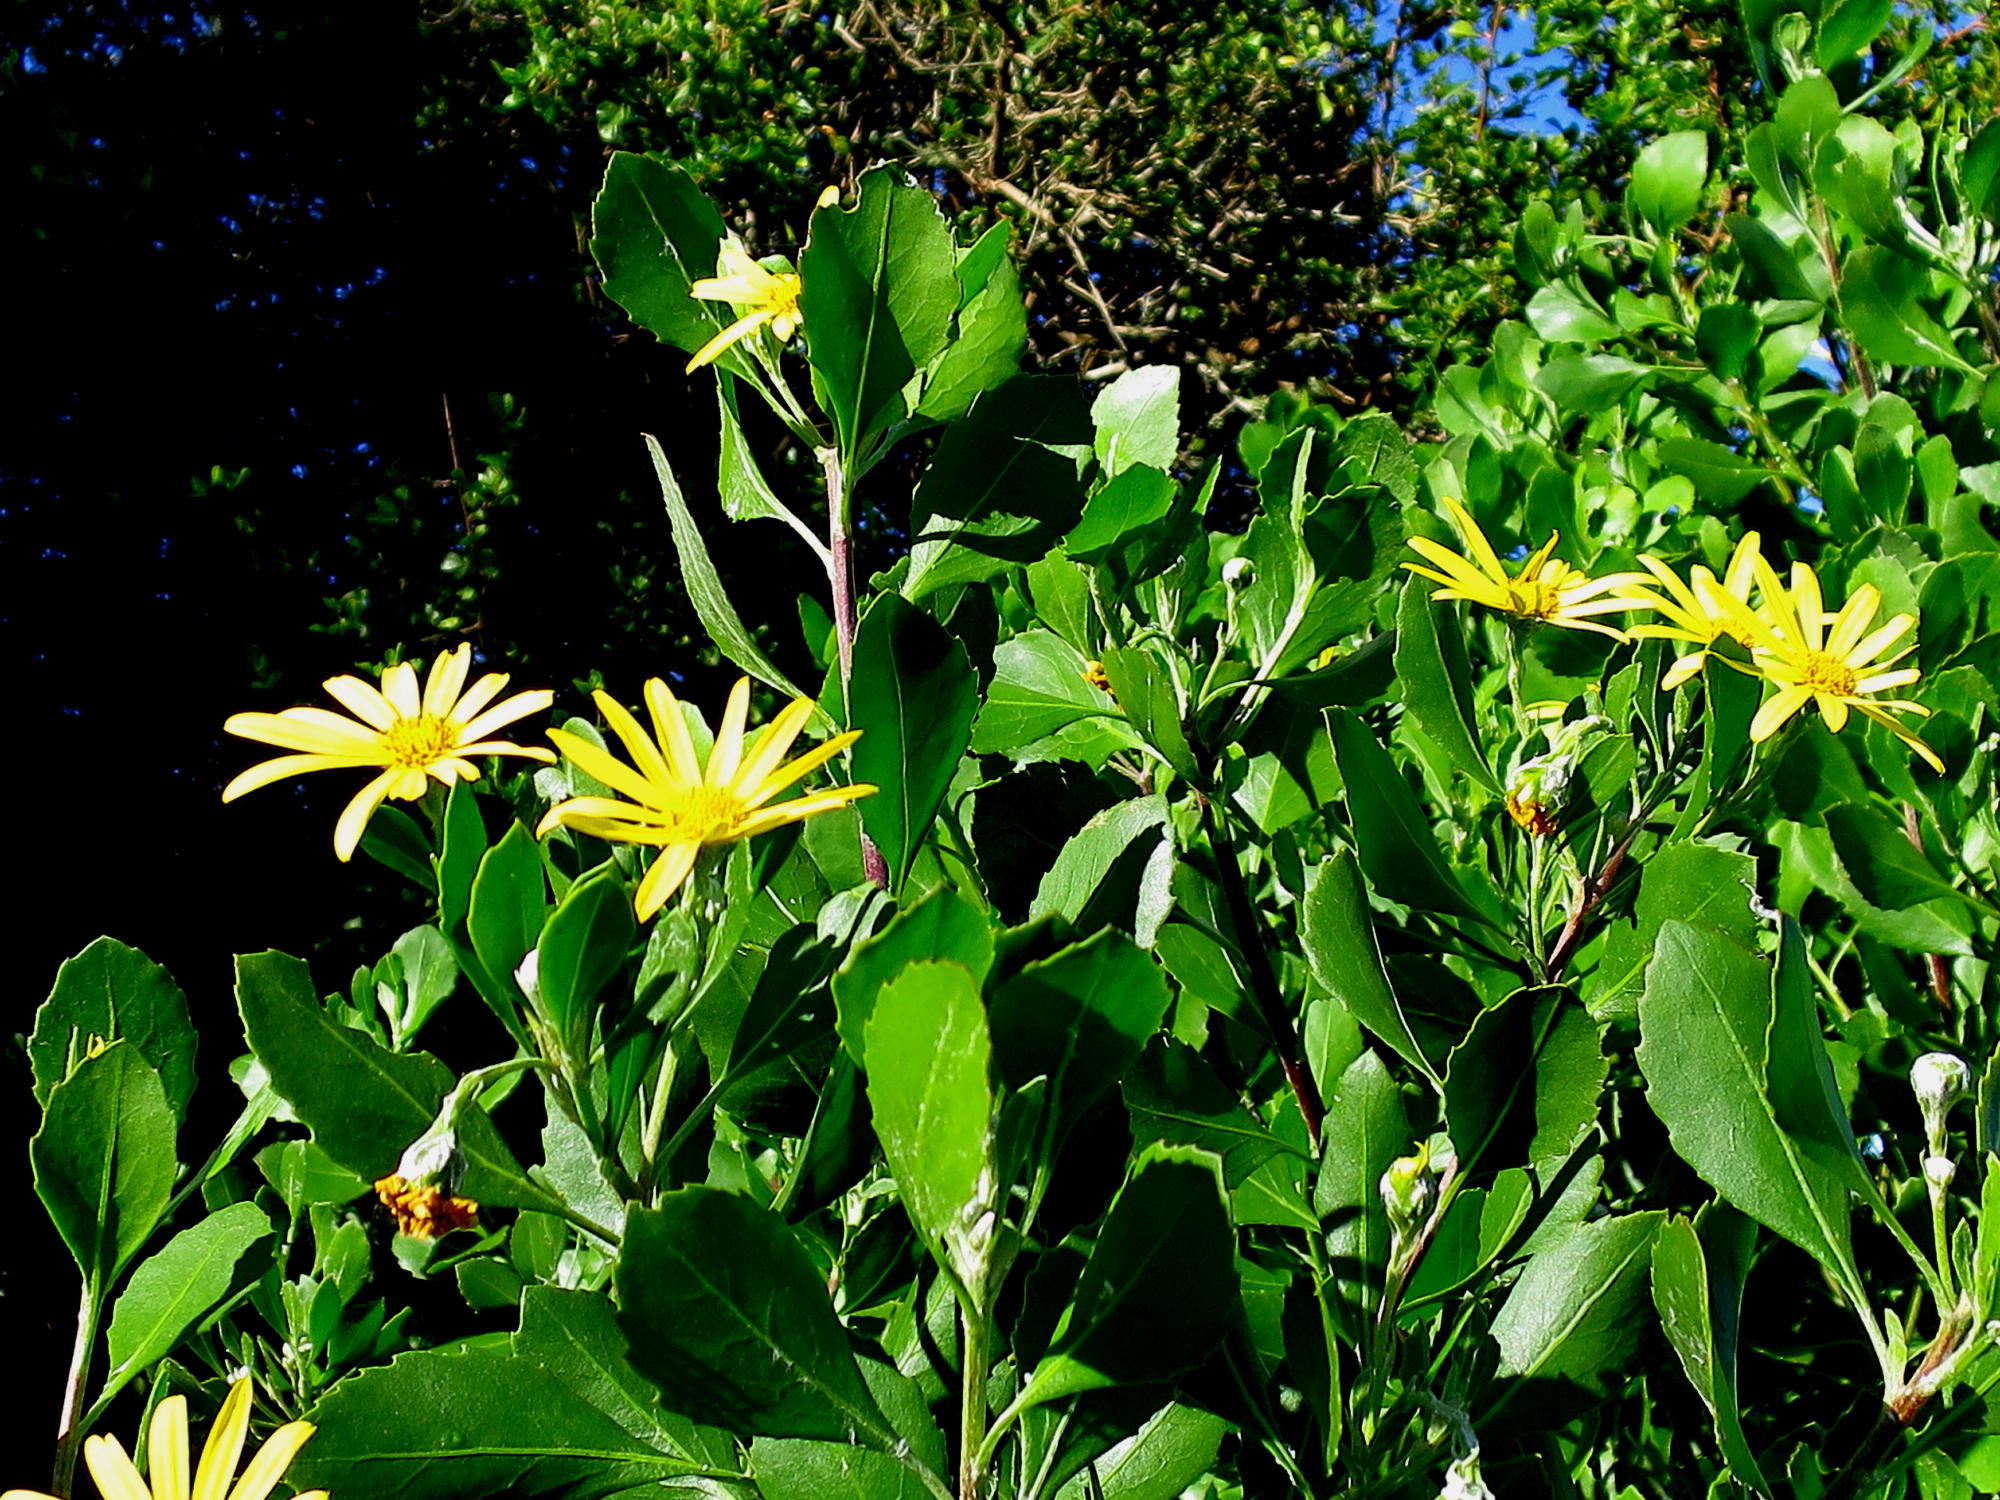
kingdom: Plantae
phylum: Tracheophyta
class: Magnoliopsida
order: Asterales
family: Asteraceae
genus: Osteospermum
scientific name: Osteospermum moniliferum
